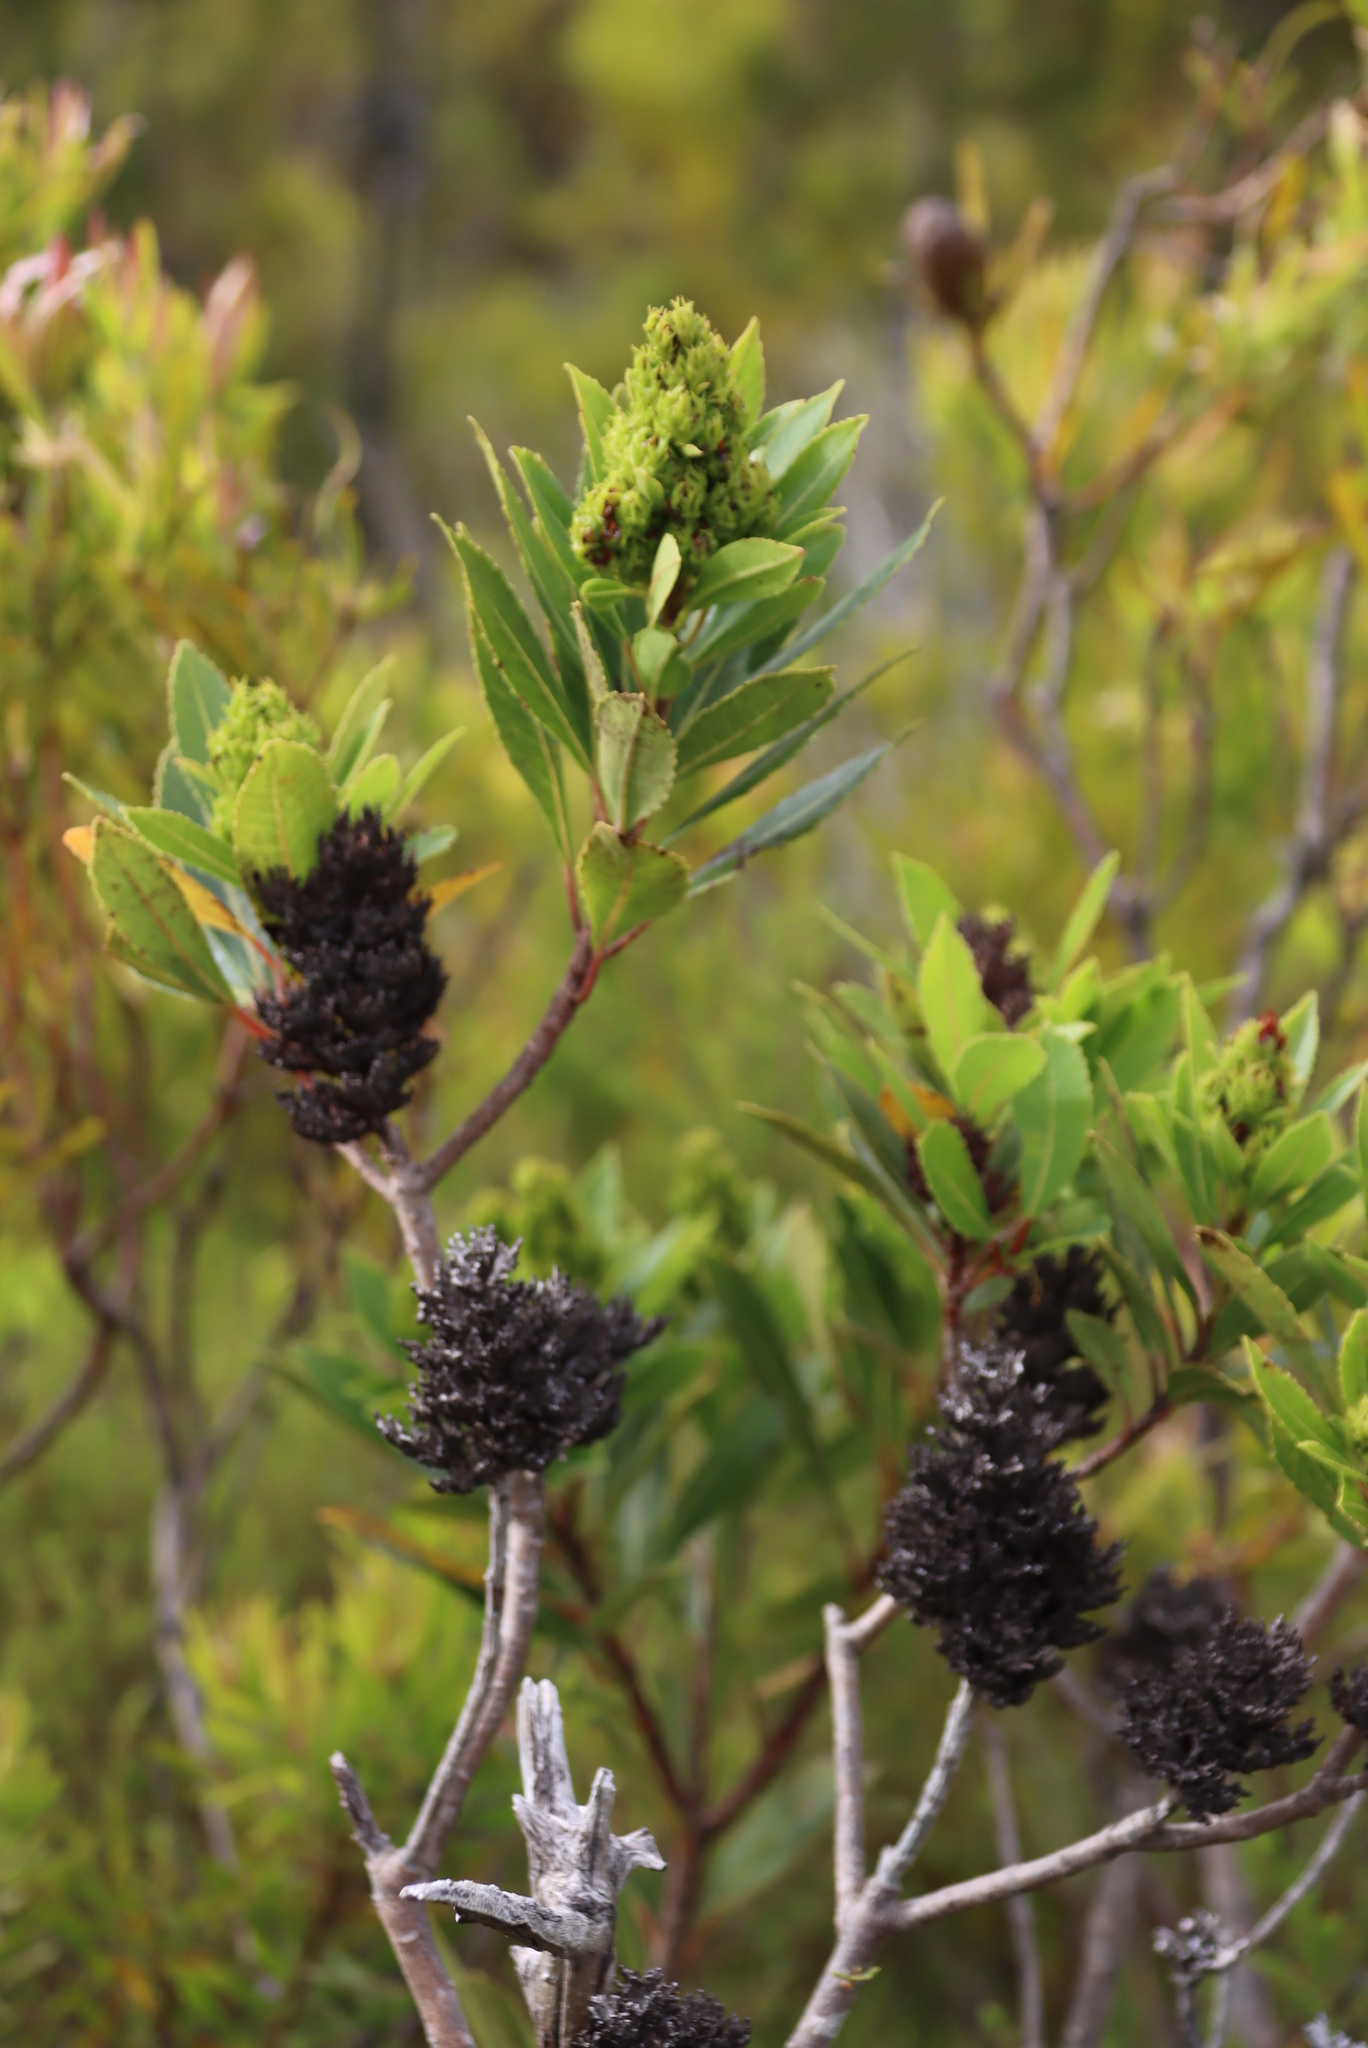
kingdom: Plantae
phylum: Tracheophyta
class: Magnoliopsida
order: Sapindales
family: Anacardiaceae
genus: Laurophyllus
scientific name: Laurophyllus capensis
